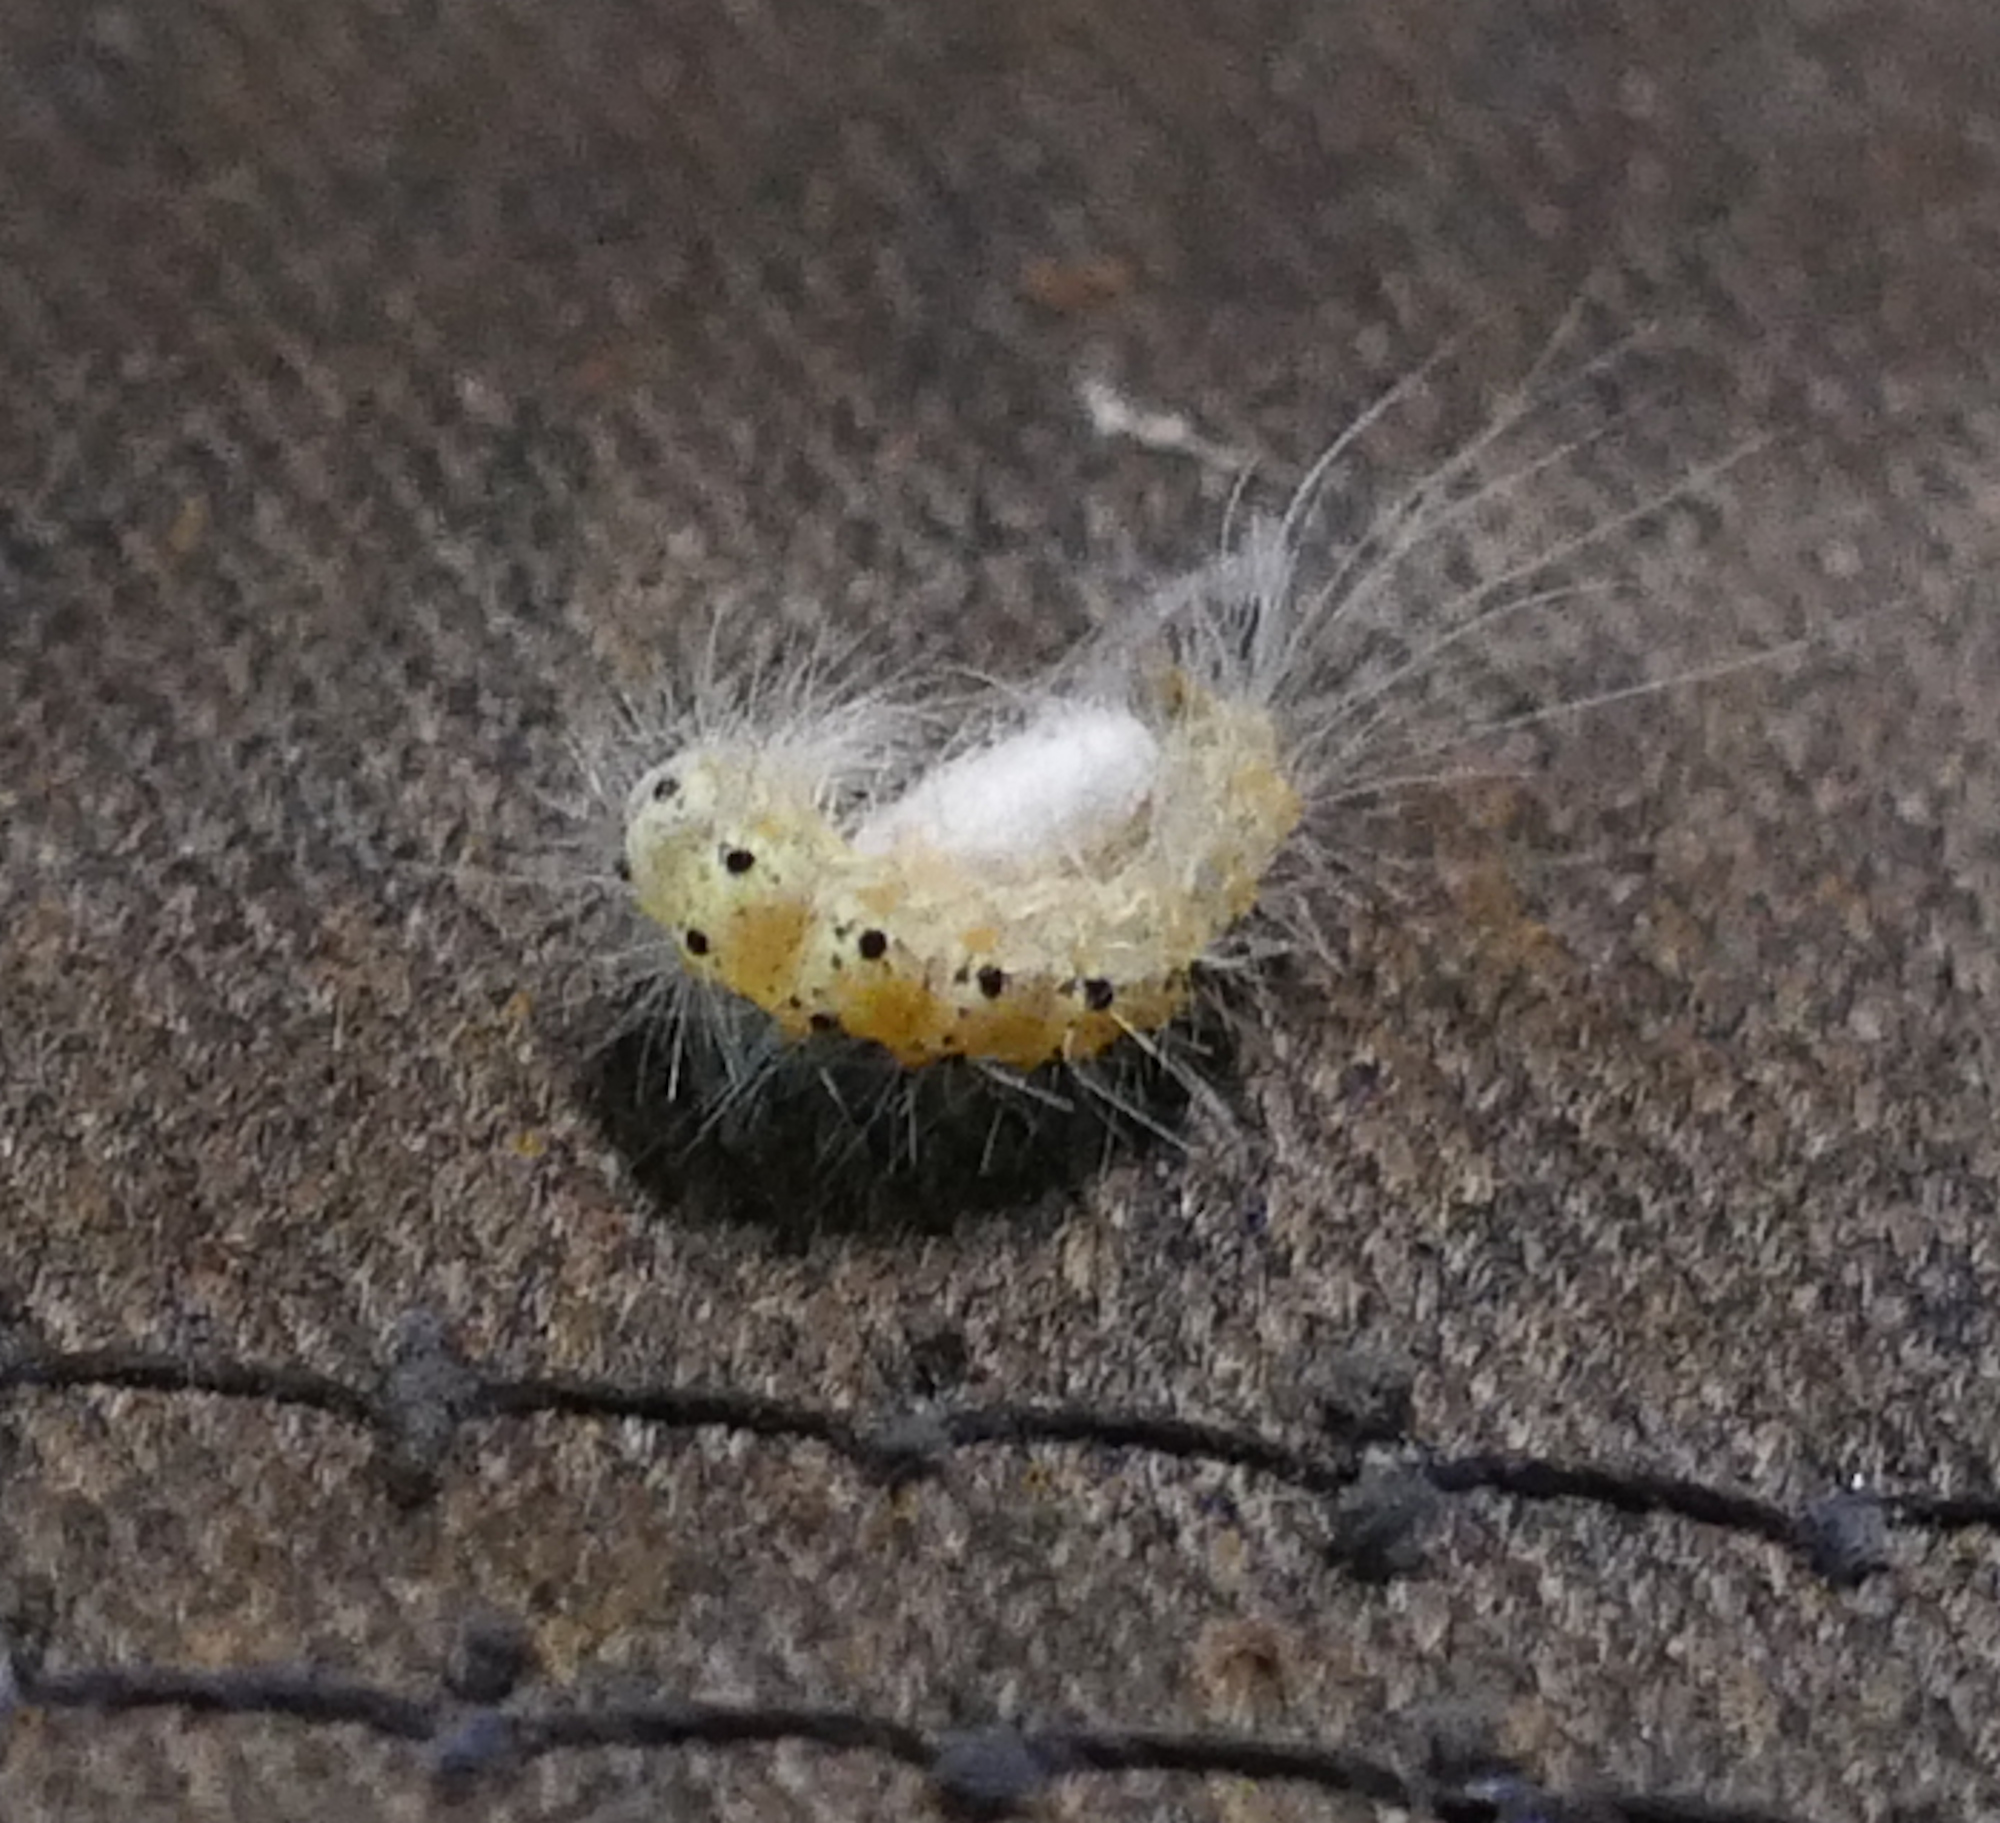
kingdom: Animalia
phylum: Arthropoda
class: Insecta
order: Lepidoptera
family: Erebidae
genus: Hyphantria
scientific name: Hyphantria cunea
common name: American white moth
